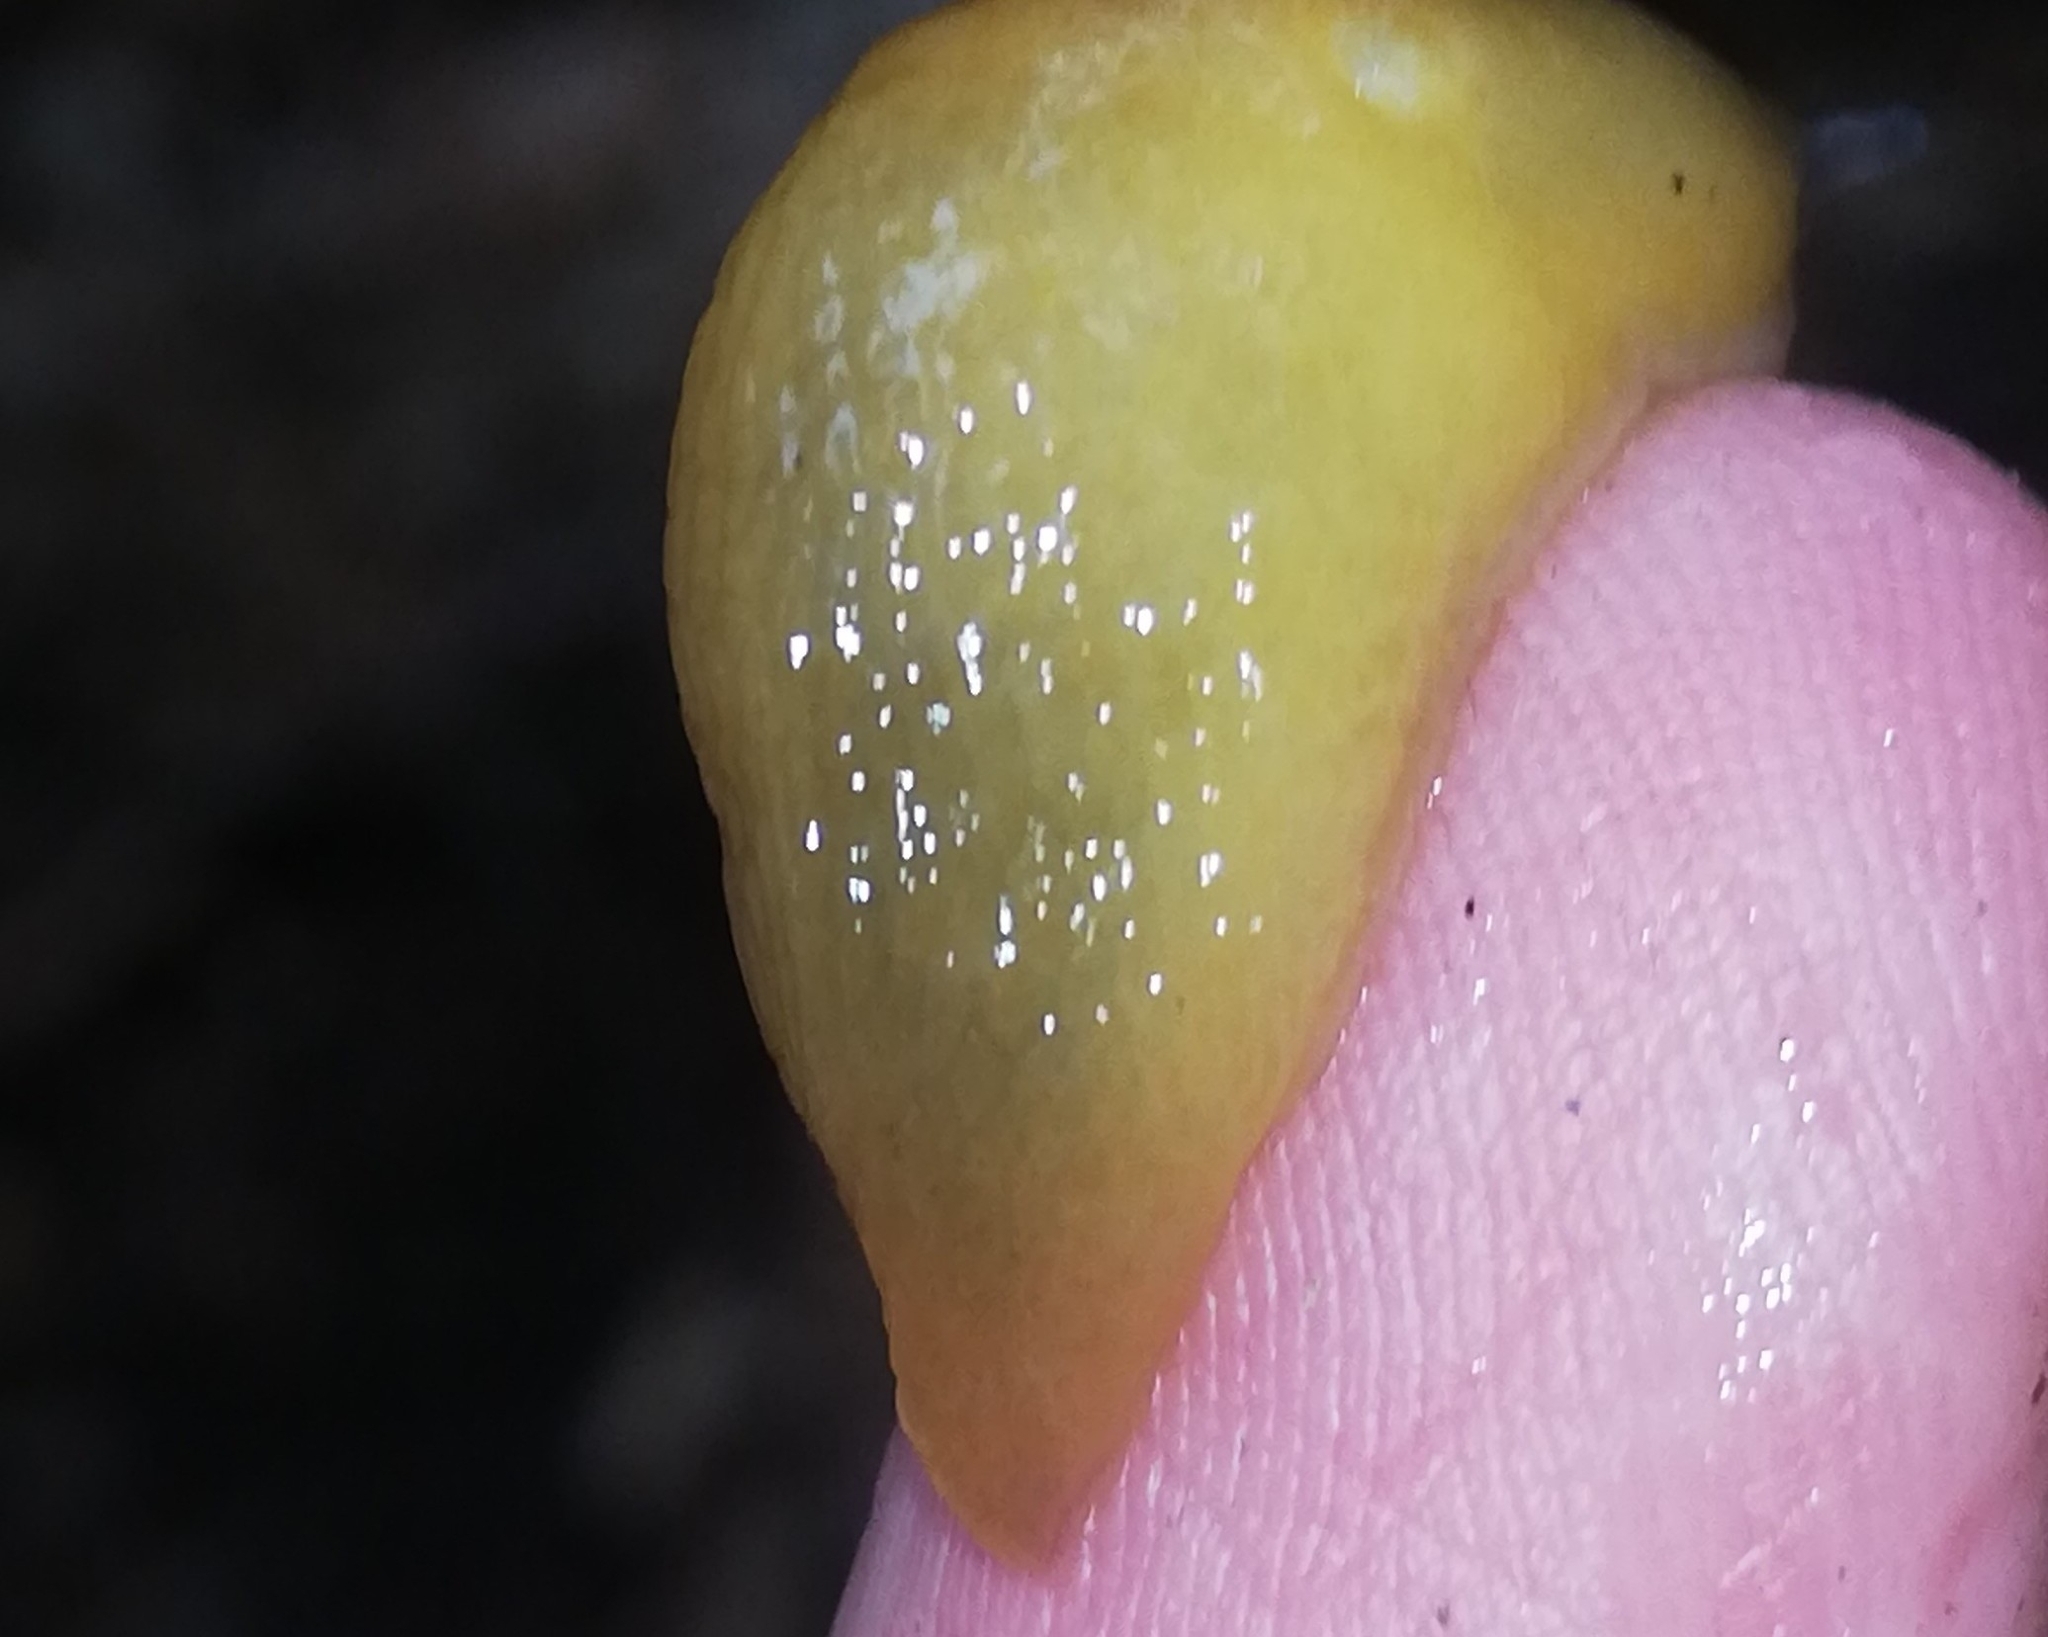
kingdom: Animalia
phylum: Mollusca
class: Gastropoda
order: Stylommatophora
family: Limacidae
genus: Malacolimax
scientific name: Malacolimax tenellus
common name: Lemon slug
